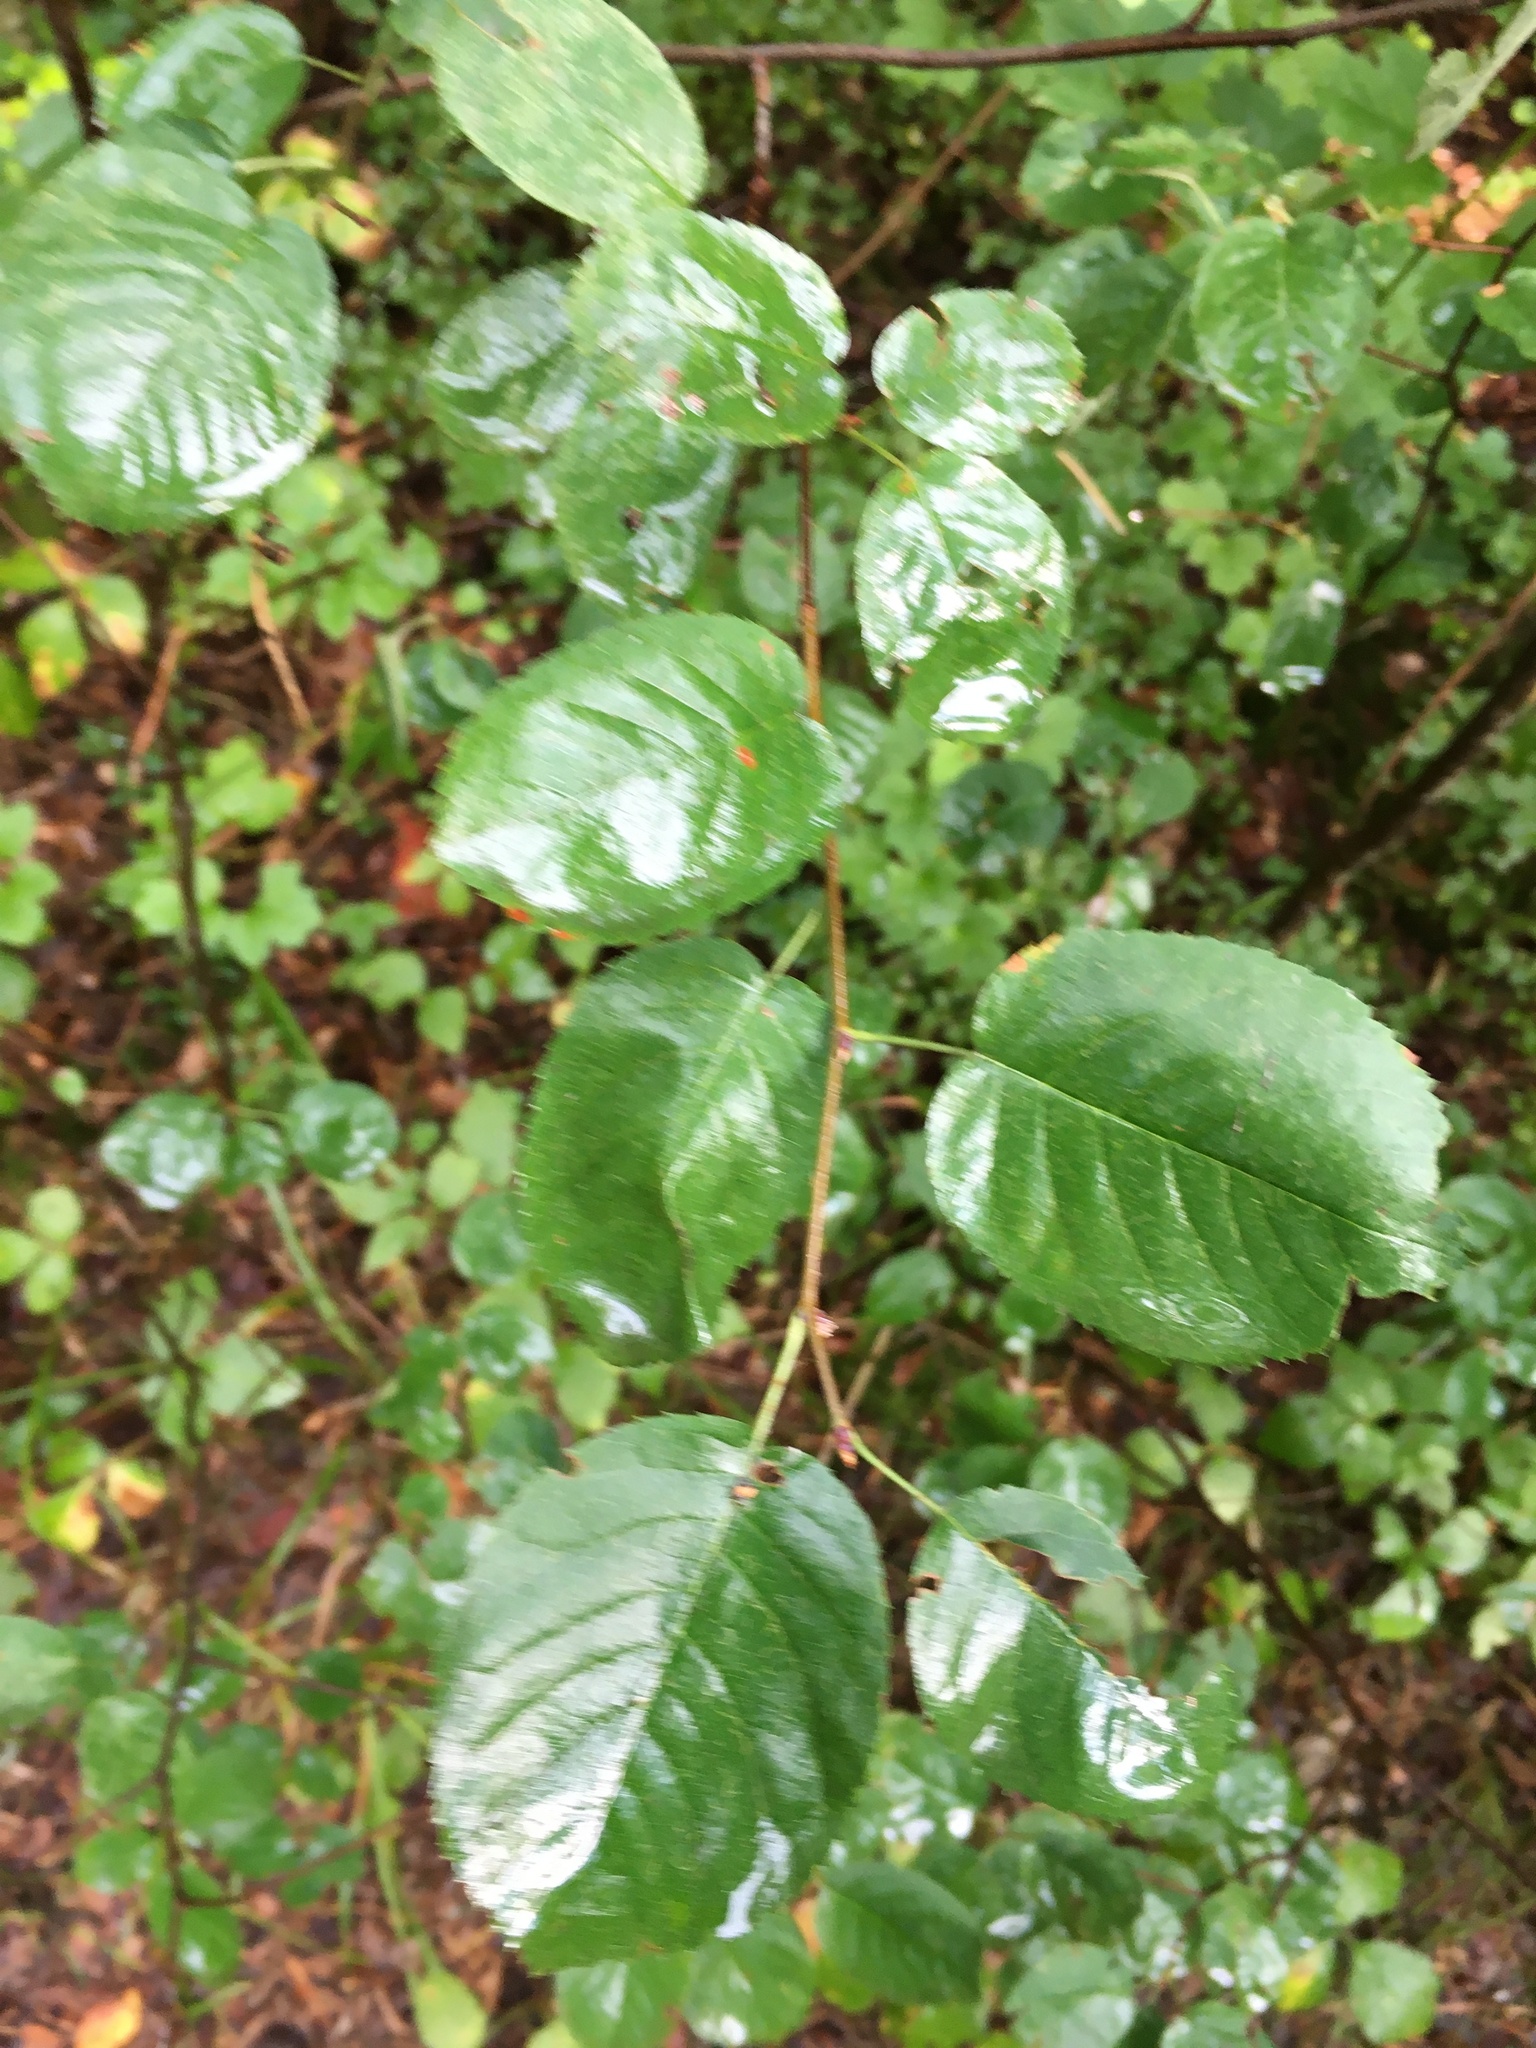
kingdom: Plantae
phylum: Tracheophyta
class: Magnoliopsida
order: Rosales
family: Rosaceae
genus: Amelanchier
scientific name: Amelanchier
